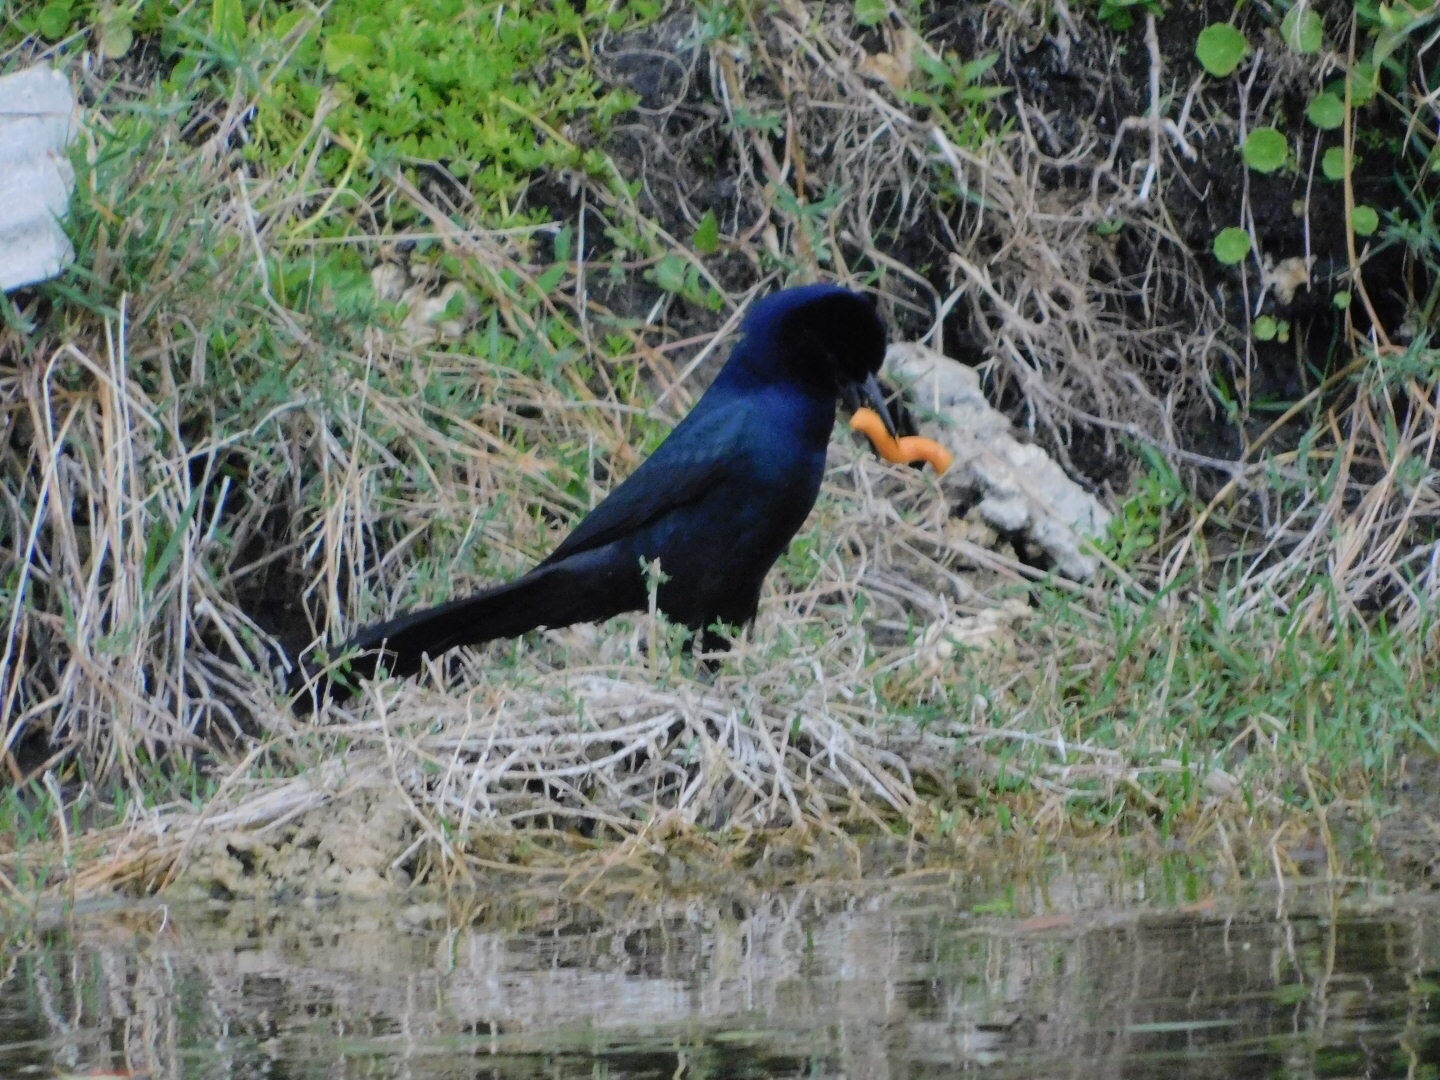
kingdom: Animalia
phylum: Chordata
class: Aves
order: Passeriformes
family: Icteridae
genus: Quiscalus
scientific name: Quiscalus major
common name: Boat-tailed grackle
